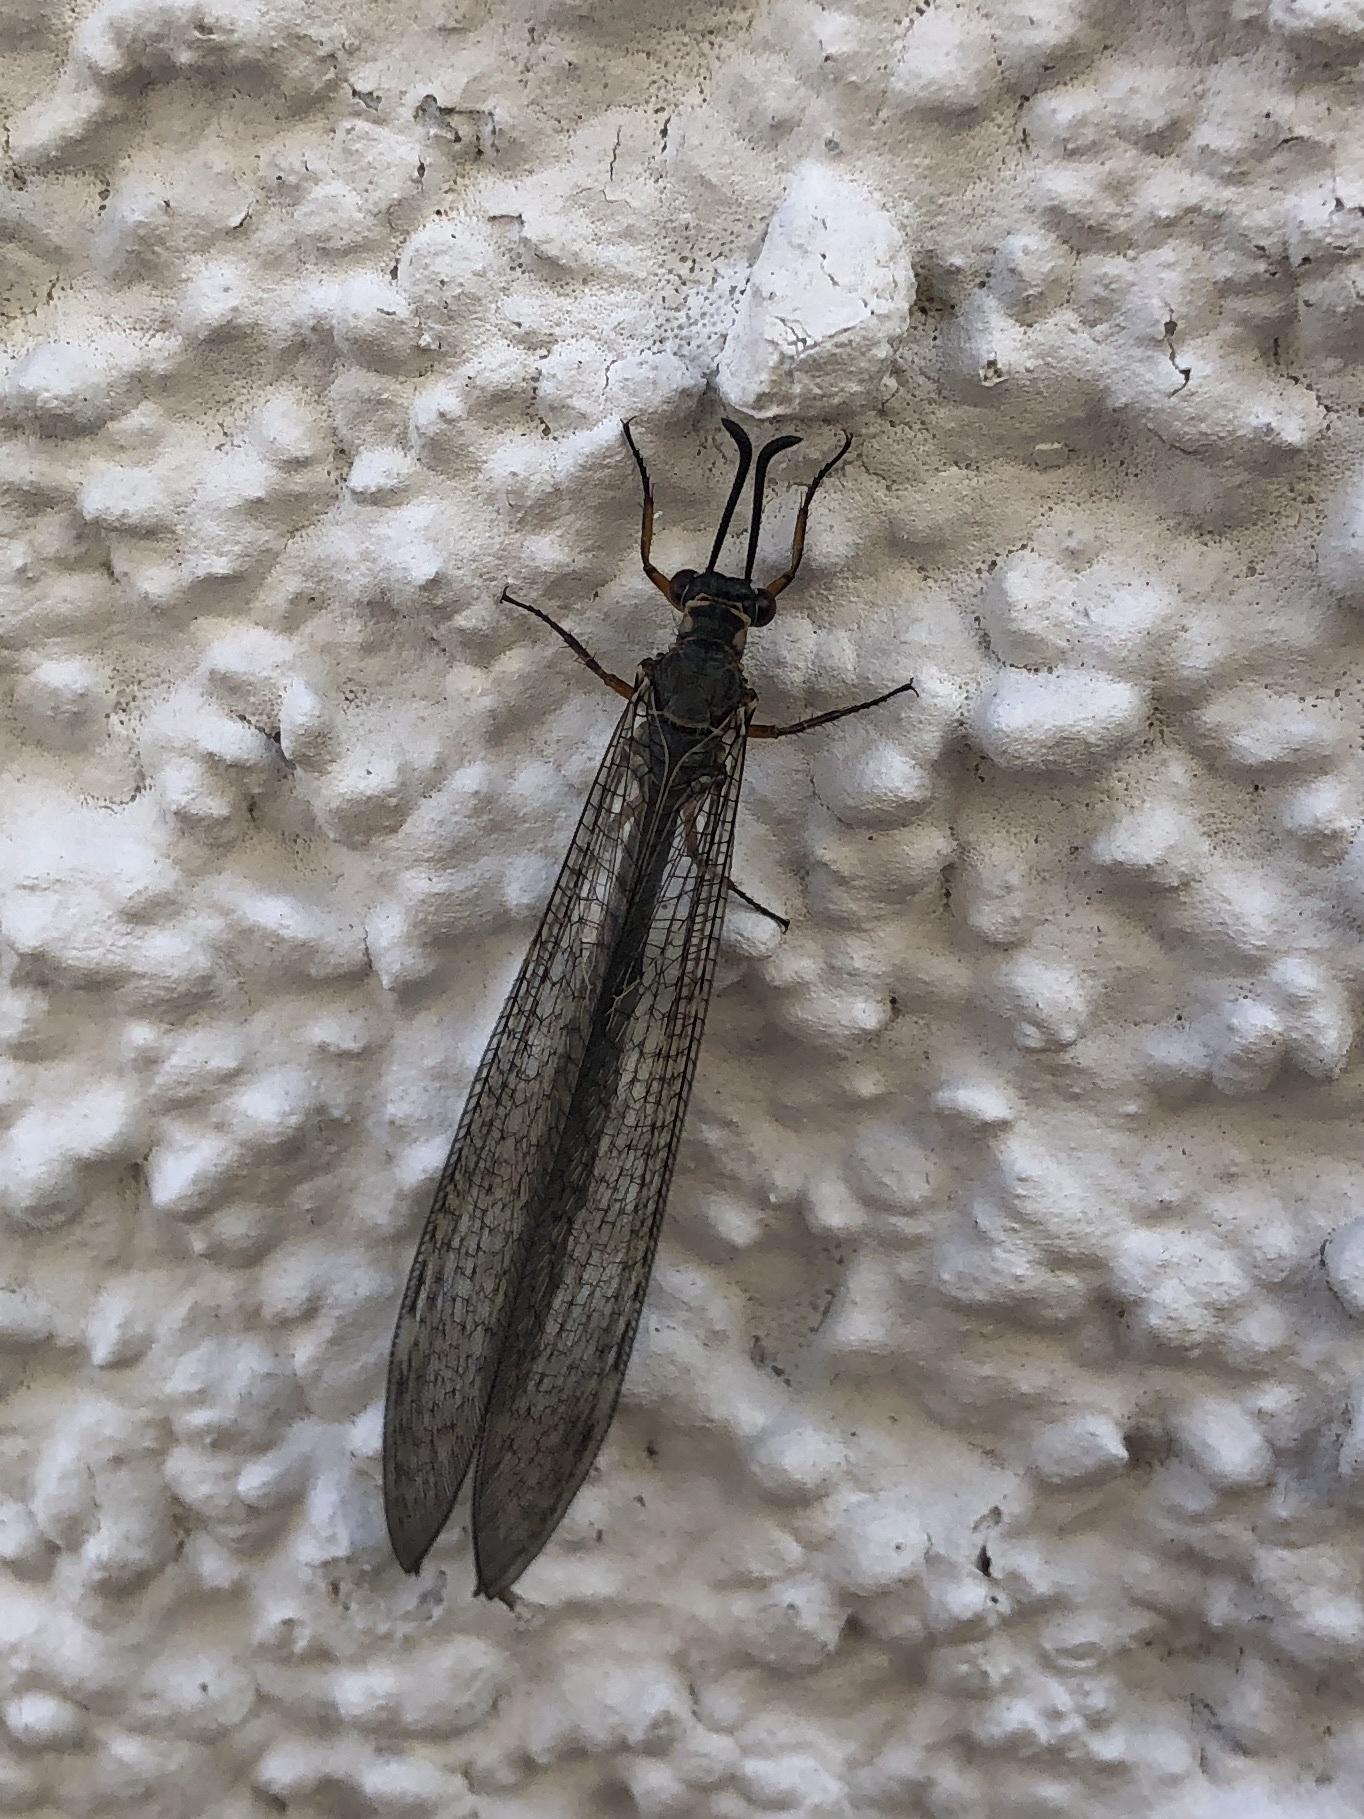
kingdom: Animalia
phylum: Arthropoda
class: Insecta
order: Neuroptera
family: Myrmeleontidae
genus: Myrmeleon
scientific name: Myrmeleon formicarius
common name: Ant-lion
